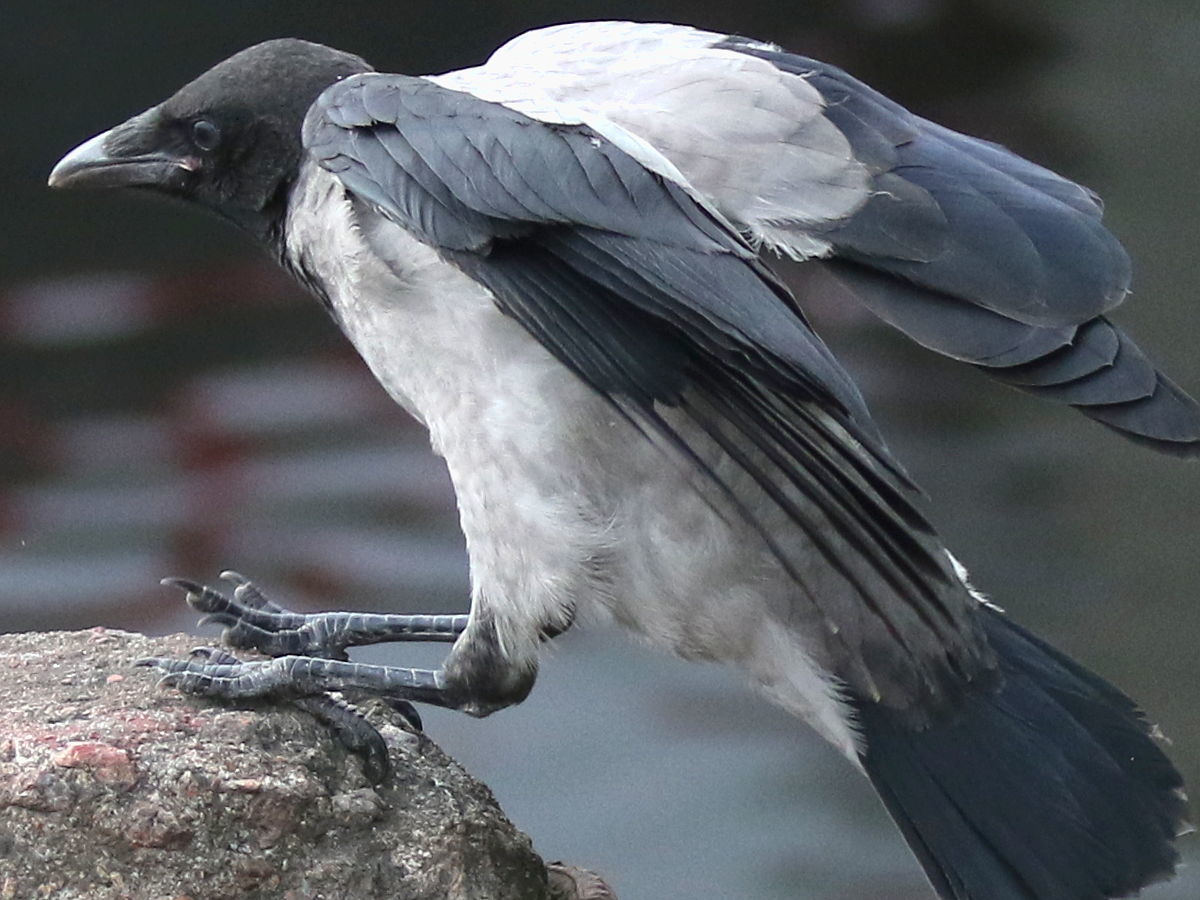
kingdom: Animalia
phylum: Chordata
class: Aves
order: Passeriformes
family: Corvidae
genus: Corvus
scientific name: Corvus cornix
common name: Hooded crow
